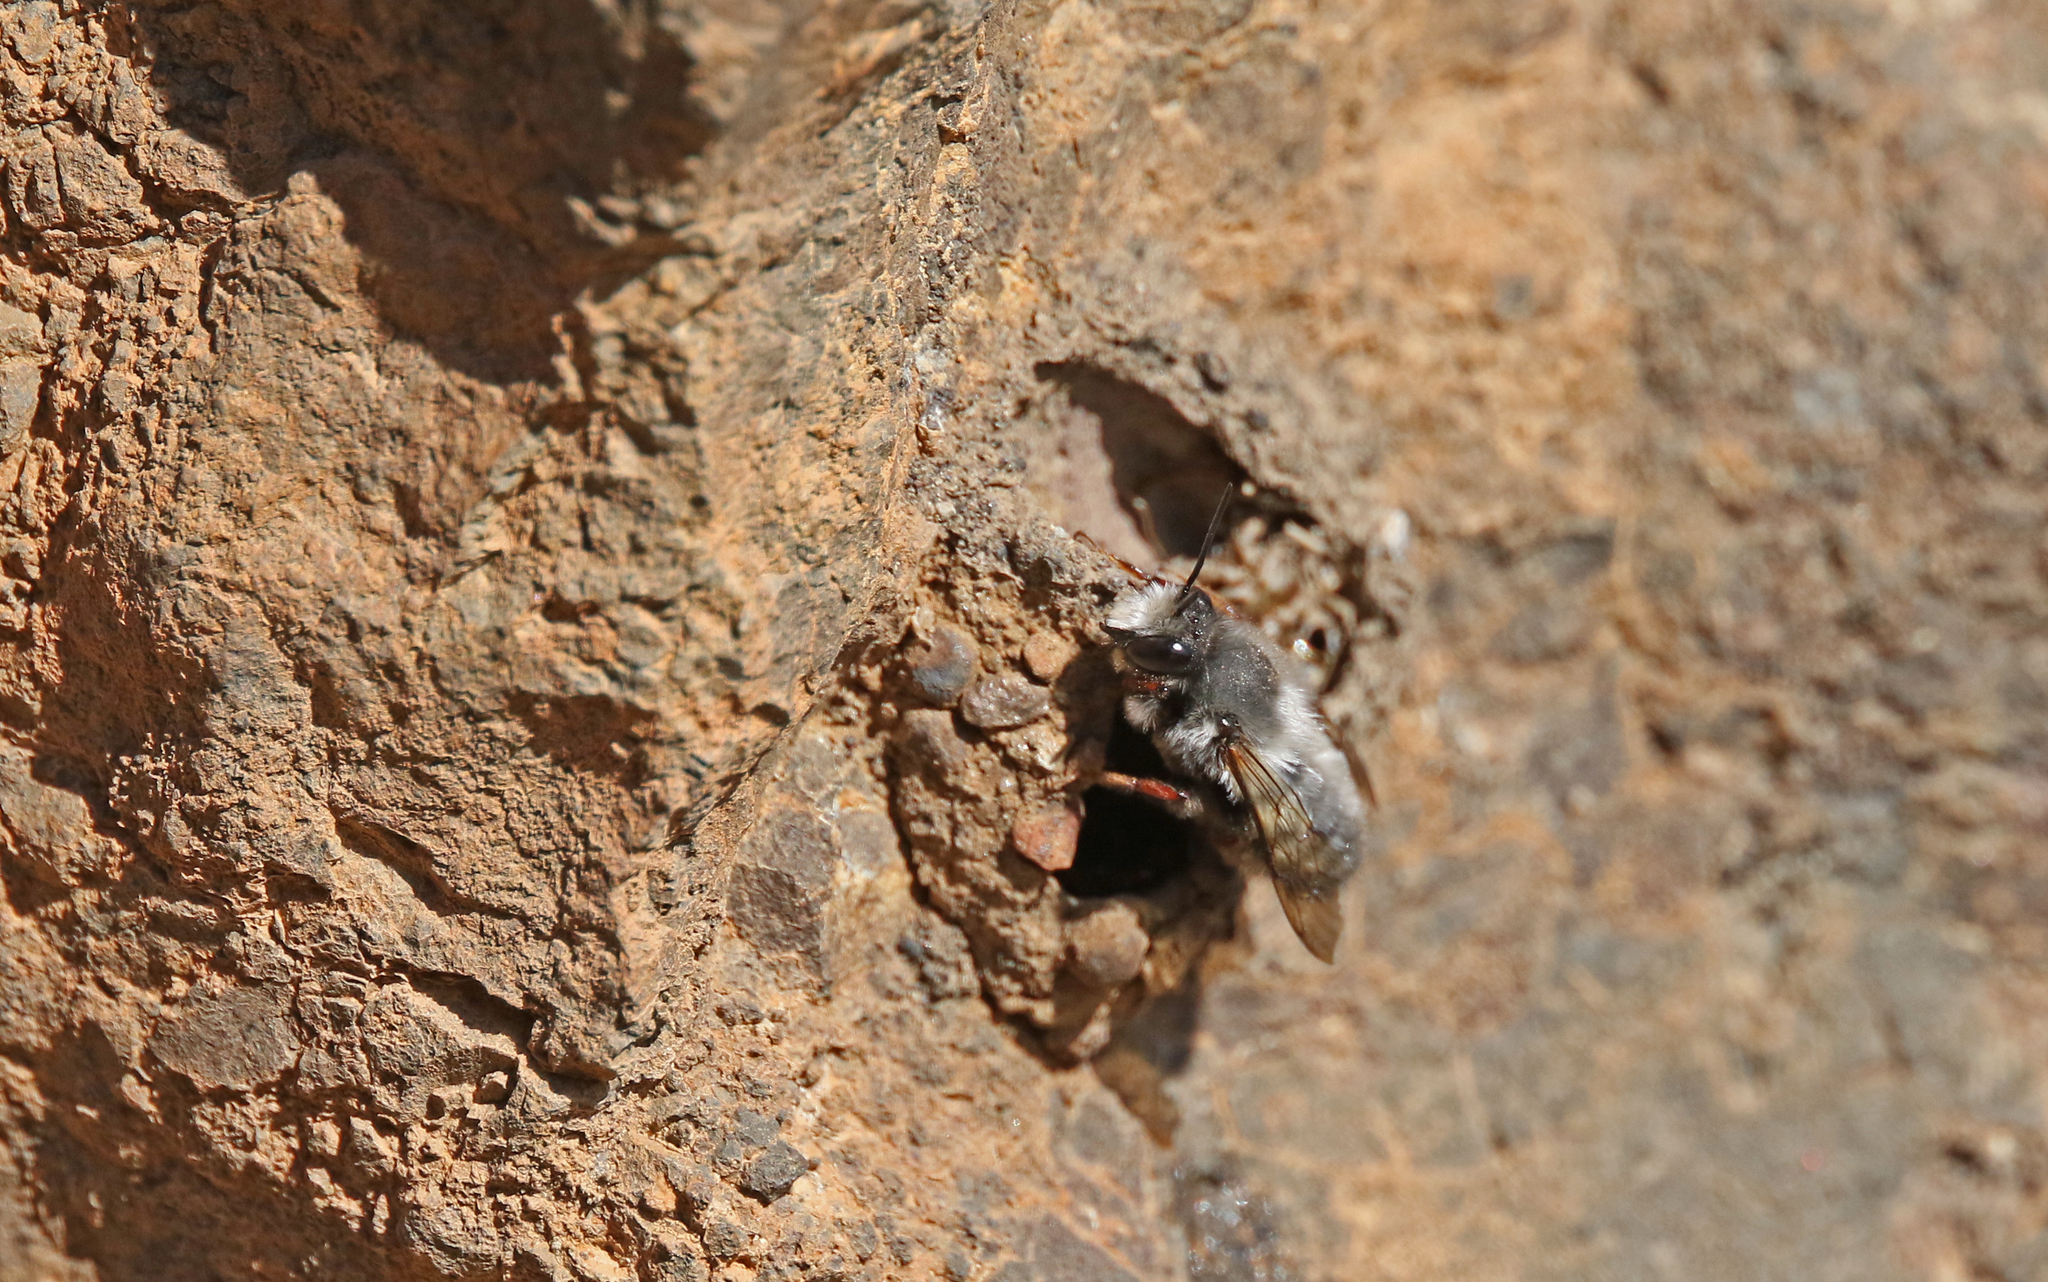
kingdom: Animalia
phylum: Arthropoda
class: Insecta
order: Hymenoptera
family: Megachilidae
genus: Megachile
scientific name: Megachile canescens
